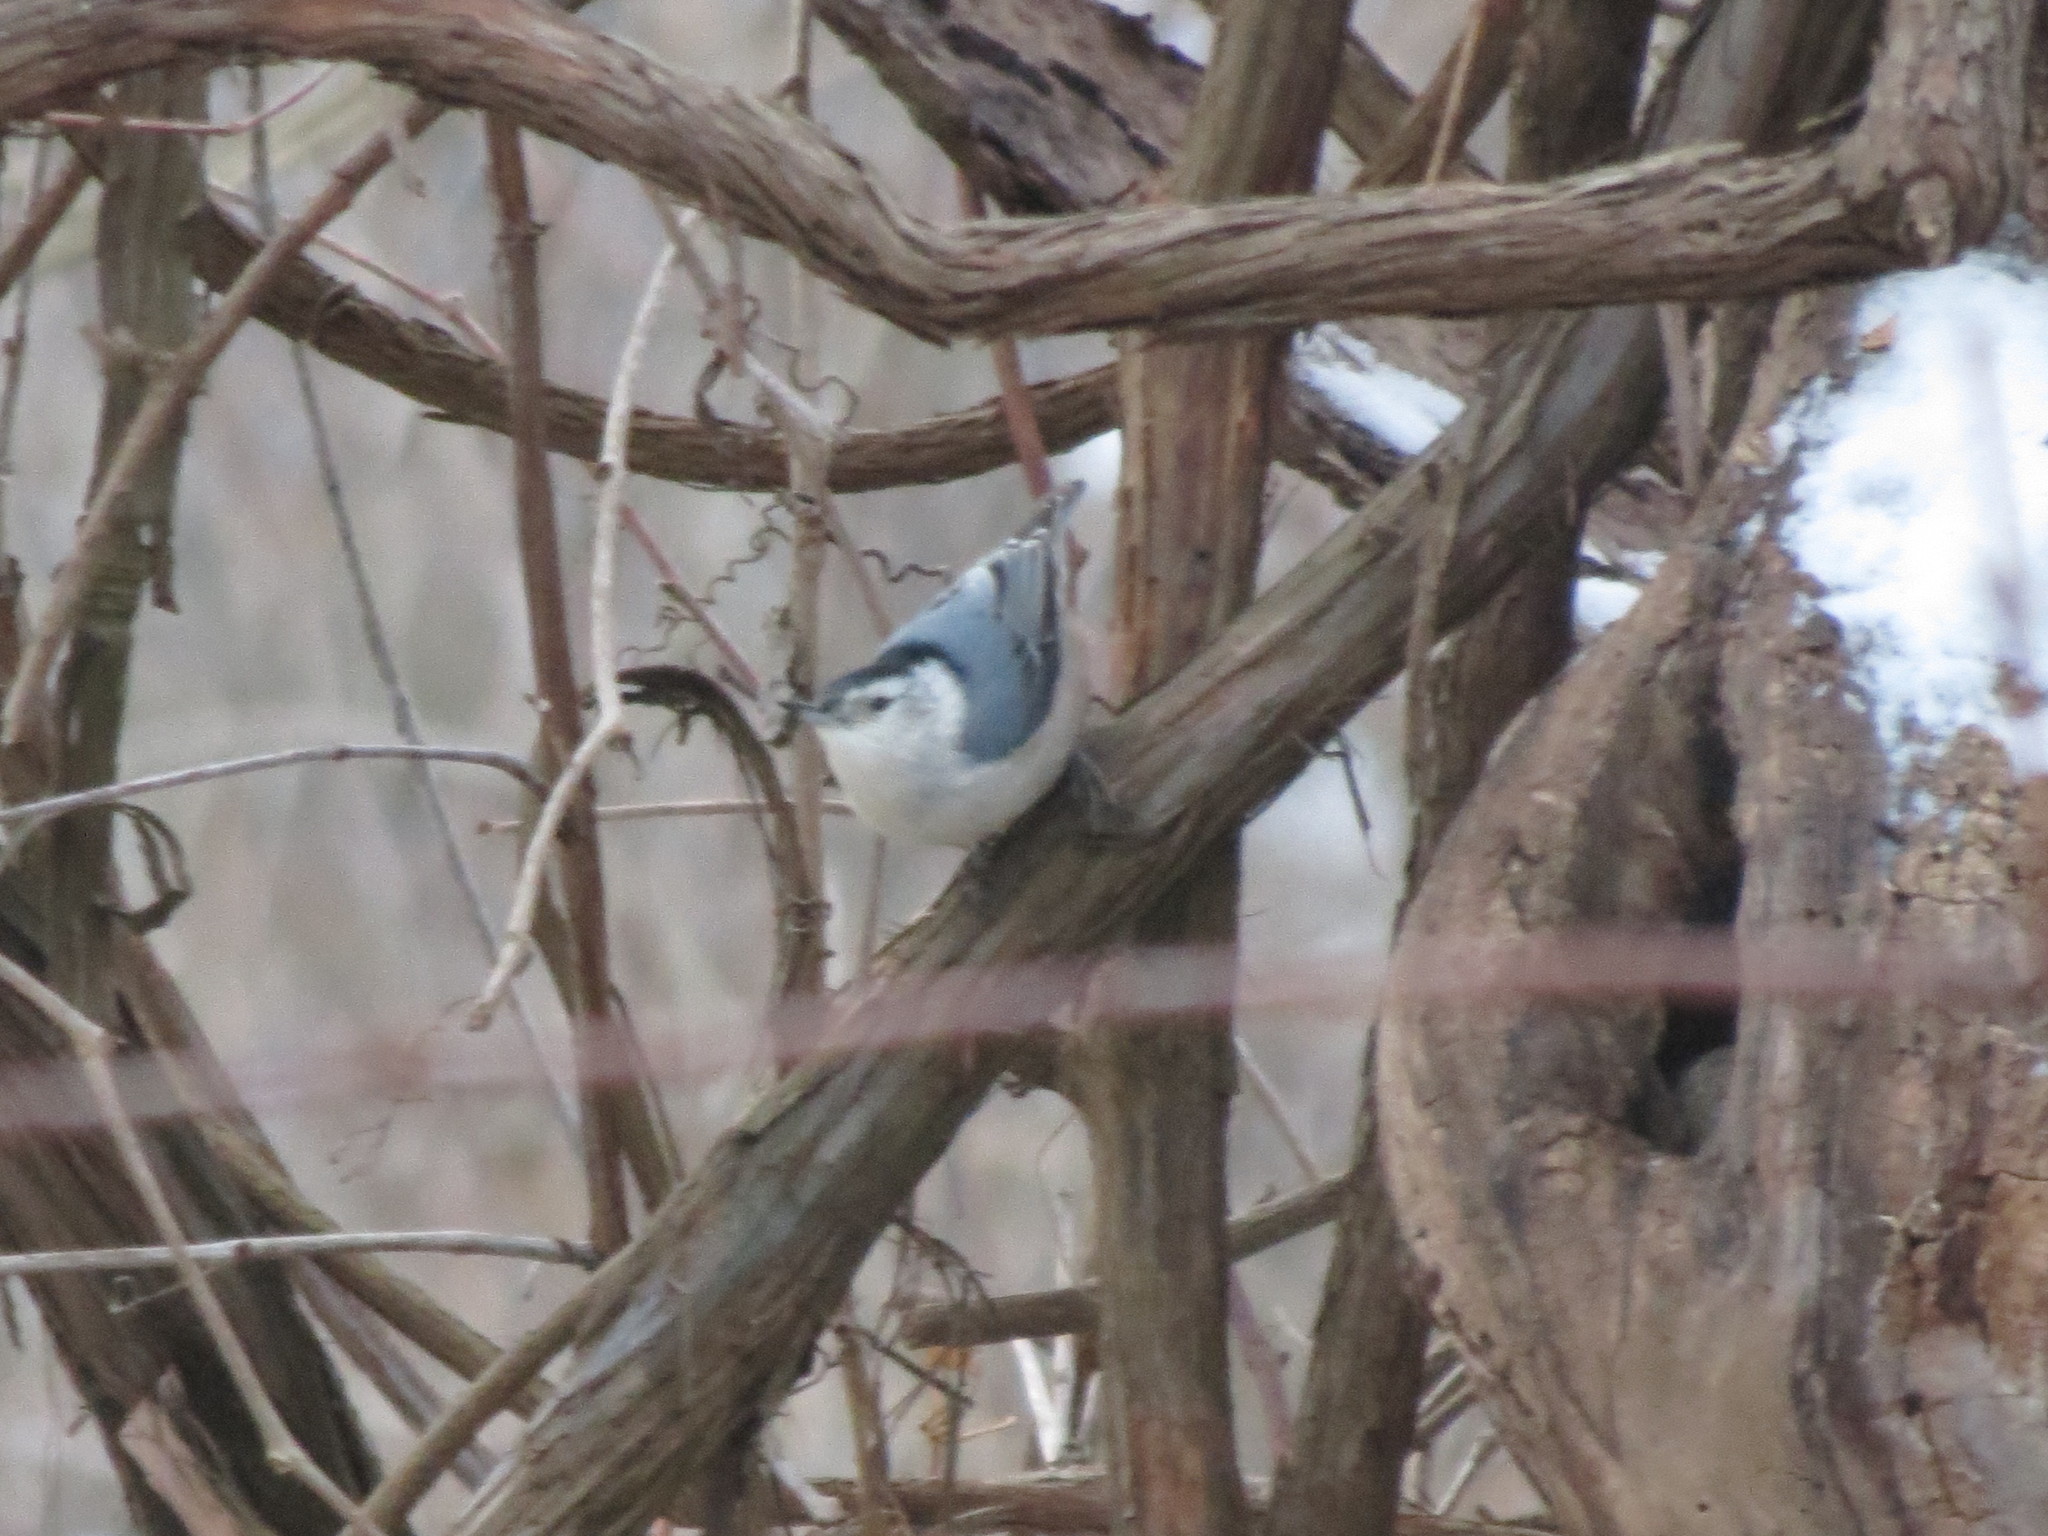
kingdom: Animalia
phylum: Chordata
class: Aves
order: Passeriformes
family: Sittidae
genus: Sitta
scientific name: Sitta carolinensis
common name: White-breasted nuthatch
